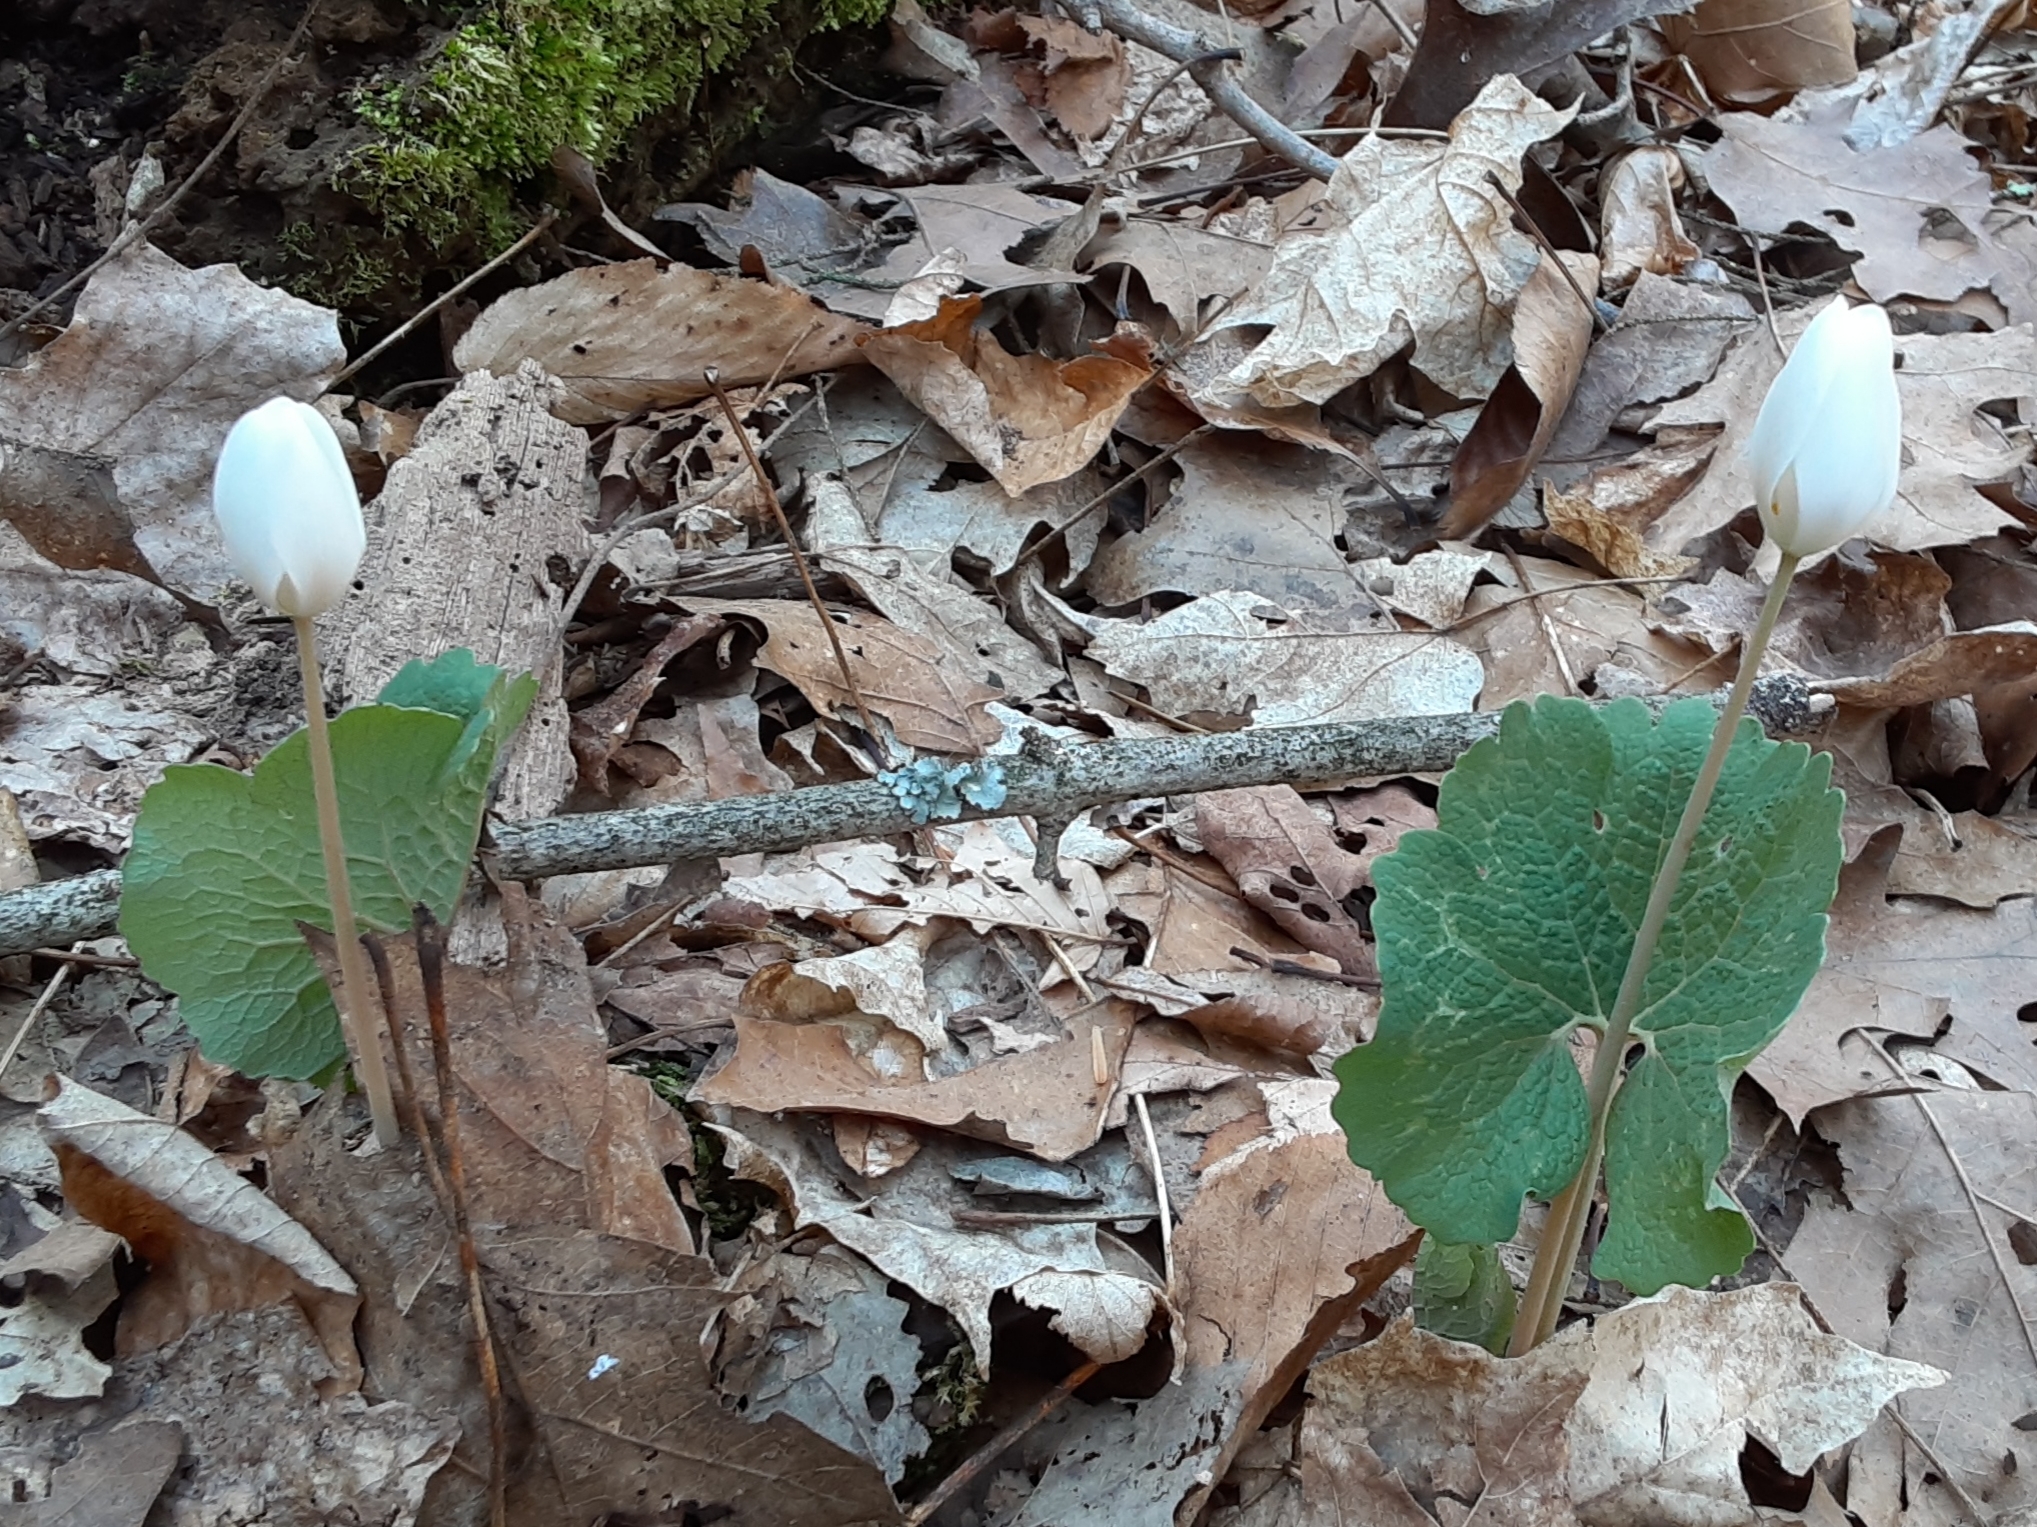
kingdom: Plantae
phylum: Tracheophyta
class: Magnoliopsida
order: Ranunculales
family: Papaveraceae
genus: Sanguinaria
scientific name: Sanguinaria canadensis
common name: Bloodroot
